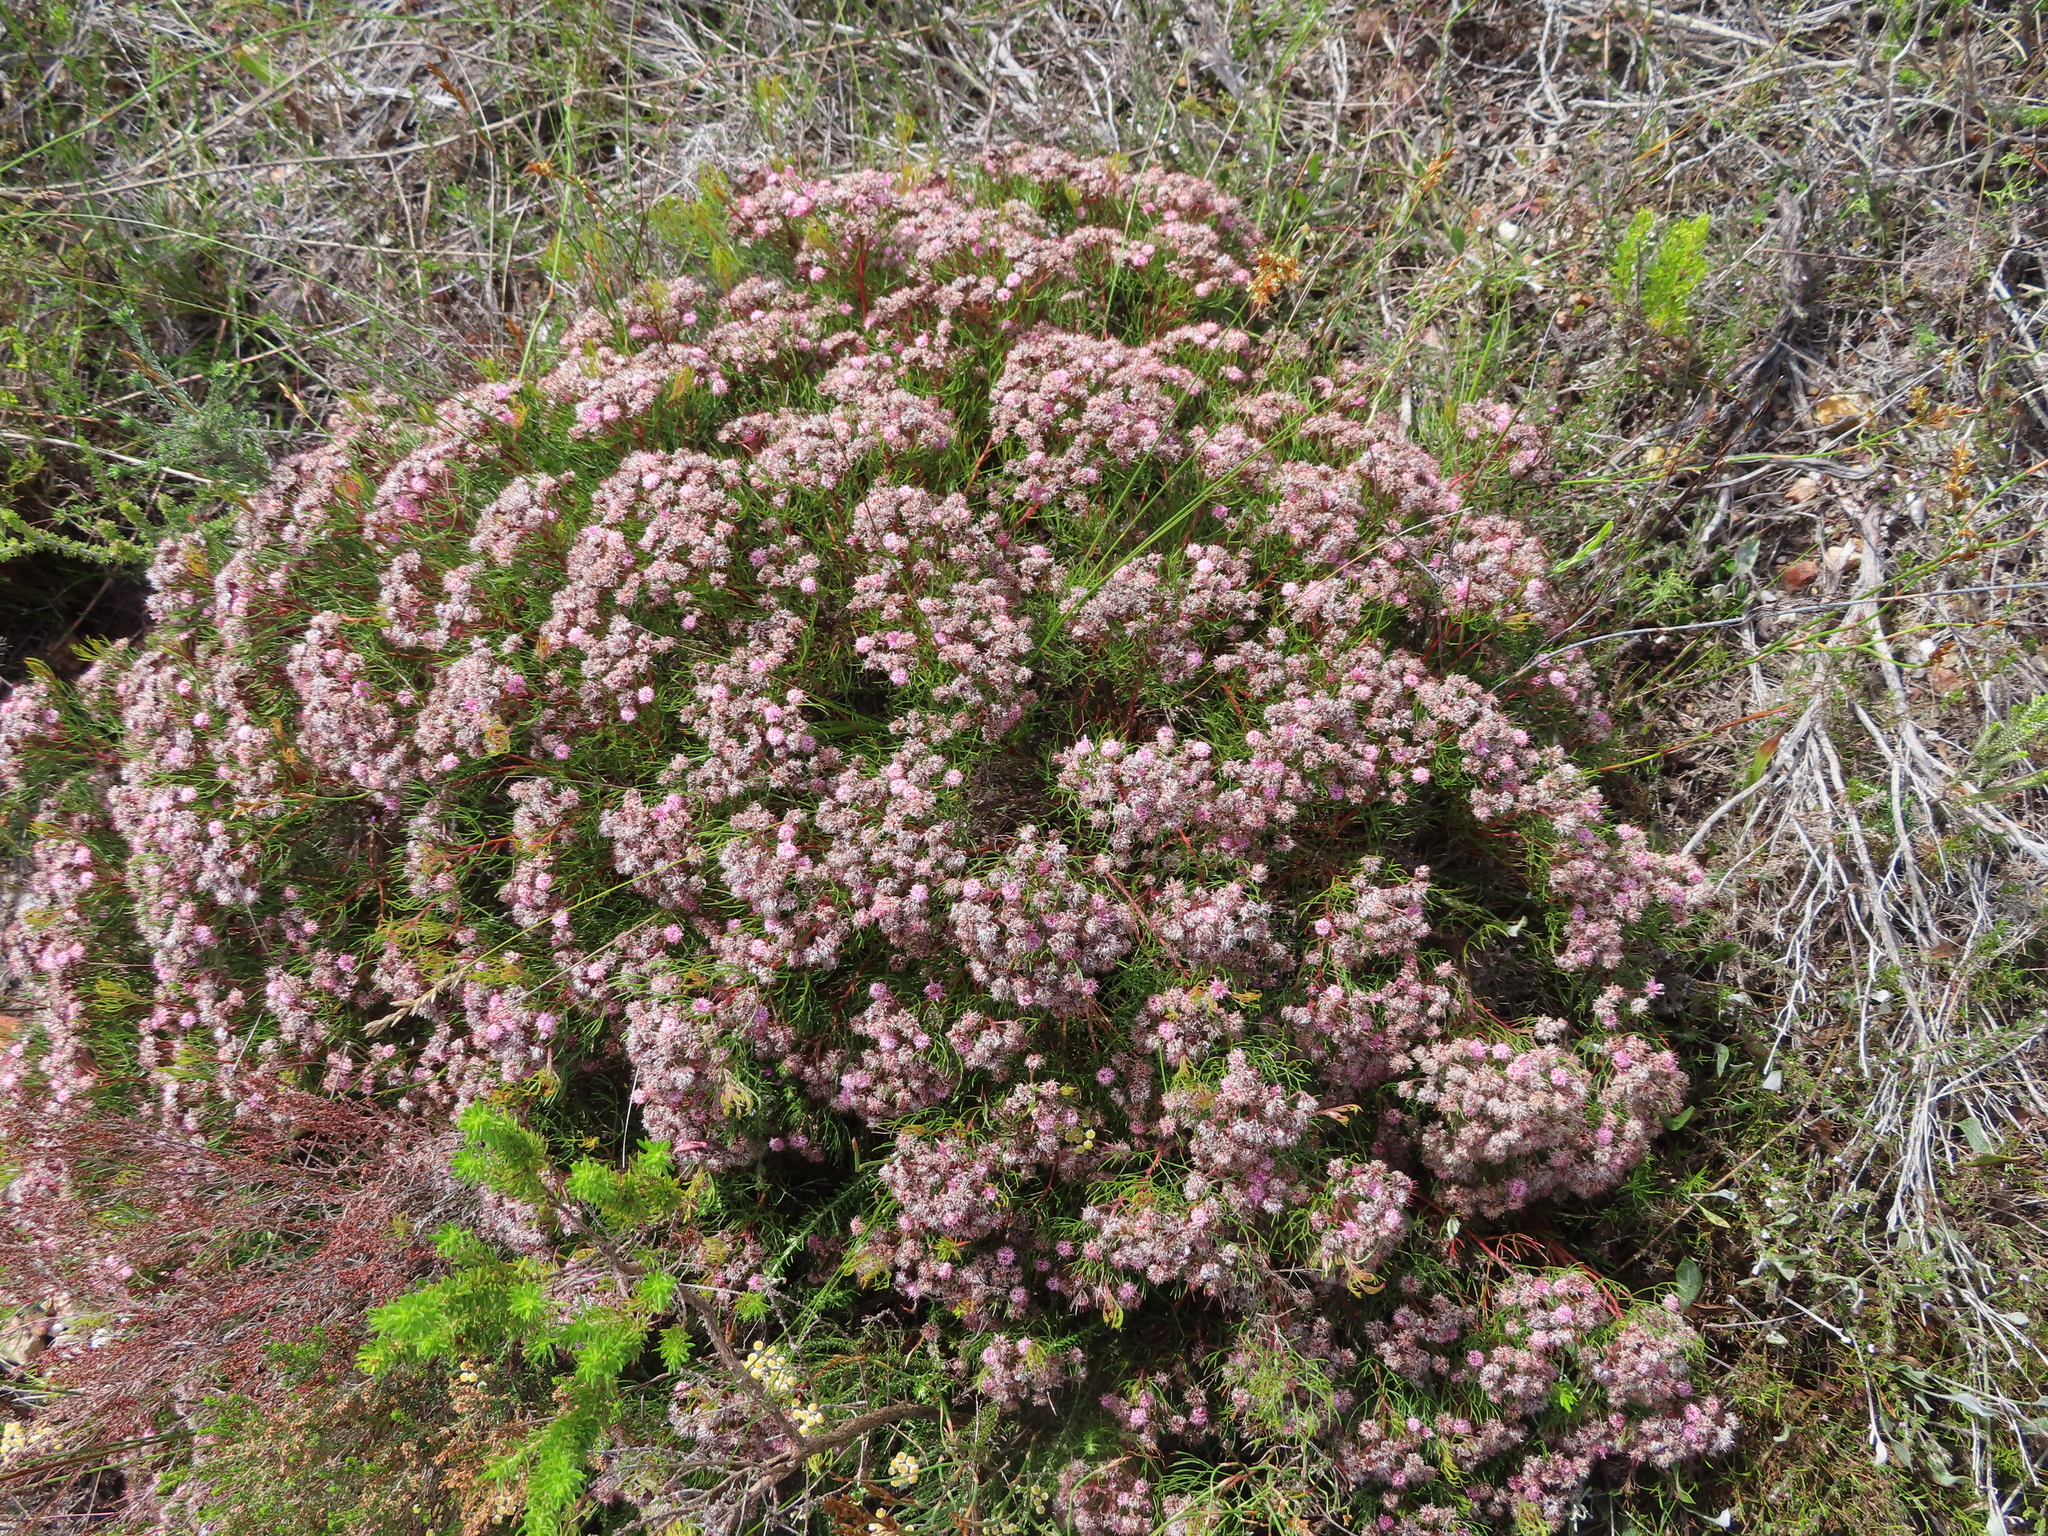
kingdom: Plantae
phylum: Tracheophyta
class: Magnoliopsida
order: Proteales
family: Proteaceae
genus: Serruria
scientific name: Serruria fasciflora
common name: Common pin spiderhead
